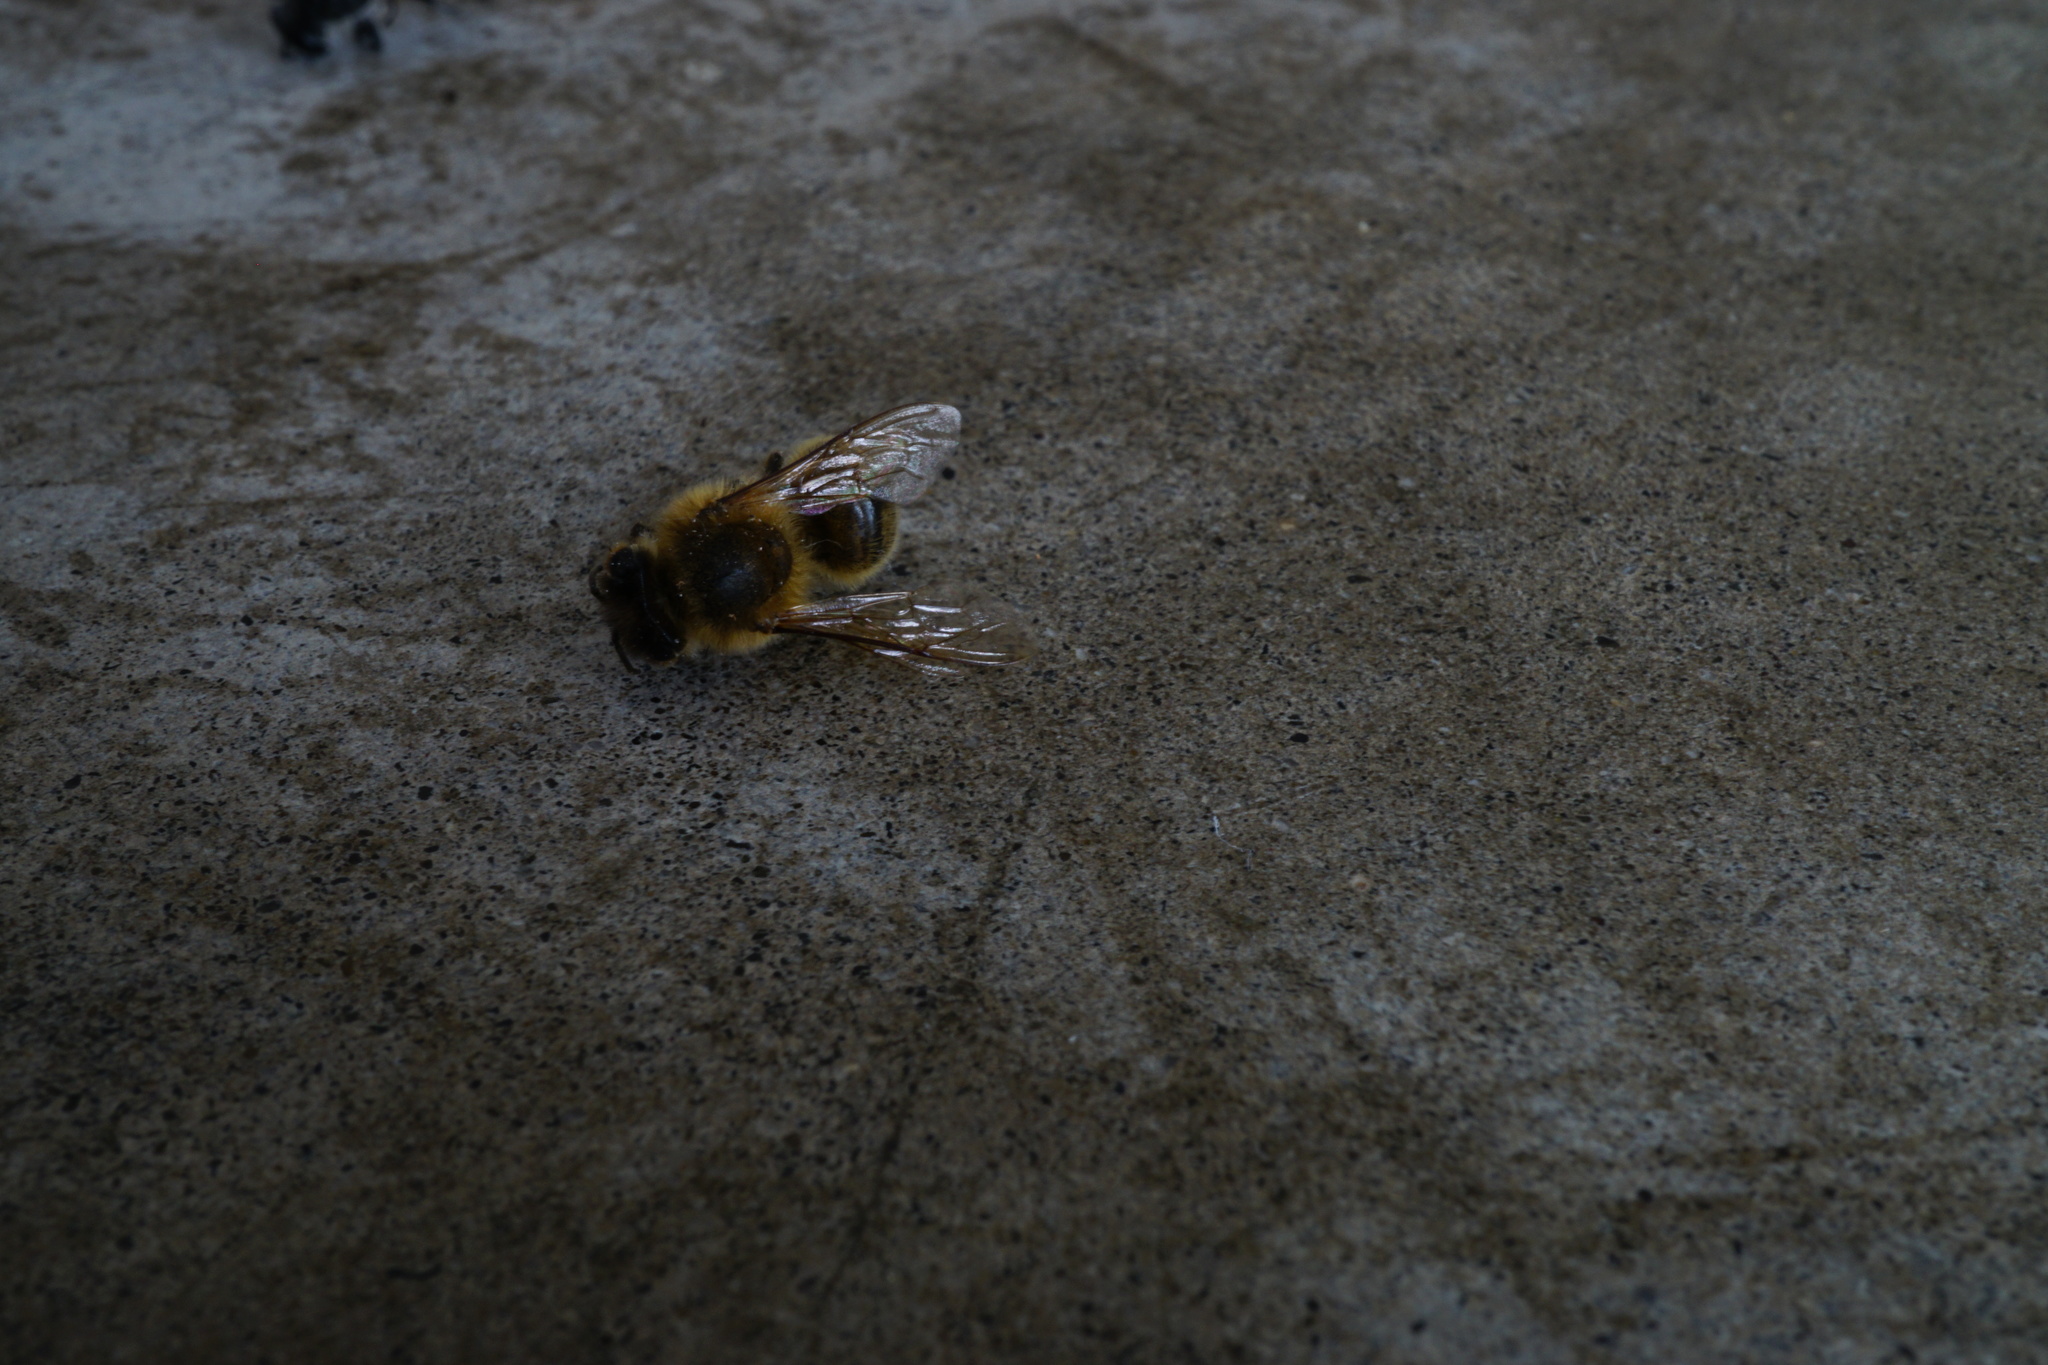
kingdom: Animalia
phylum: Arthropoda
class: Insecta
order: Hymenoptera
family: Apidae
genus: Apis
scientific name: Apis mellifera
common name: Honey bee
